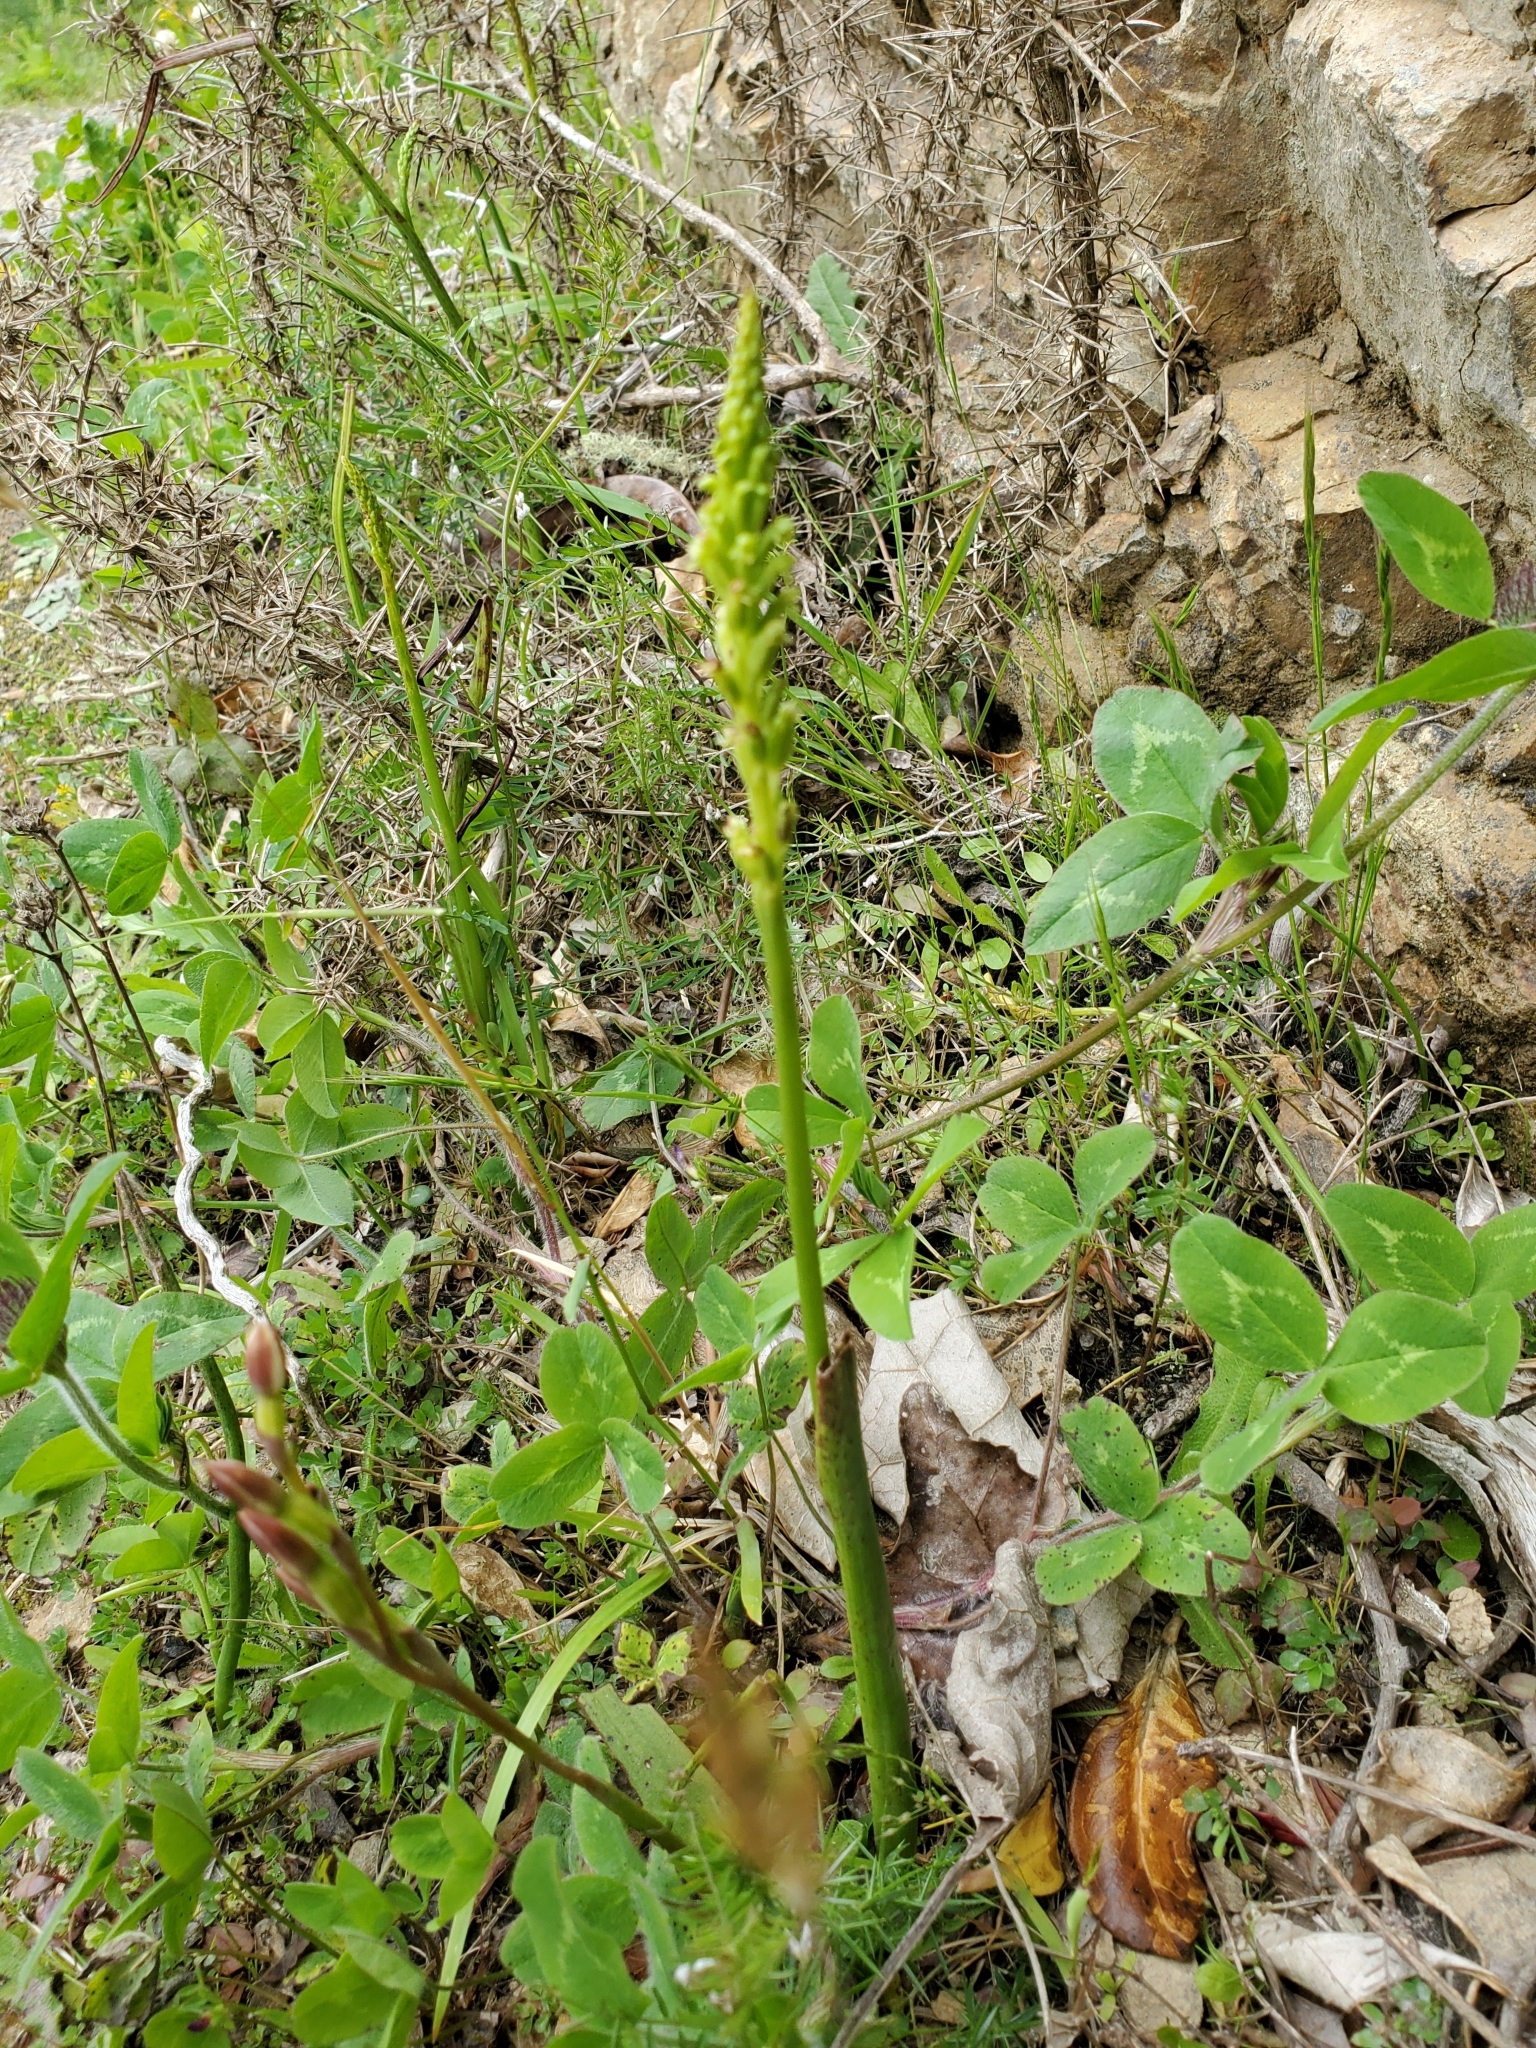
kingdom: Plantae
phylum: Tracheophyta
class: Liliopsida
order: Asparagales
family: Orchidaceae
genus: Microtis
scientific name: Microtis unifolia
